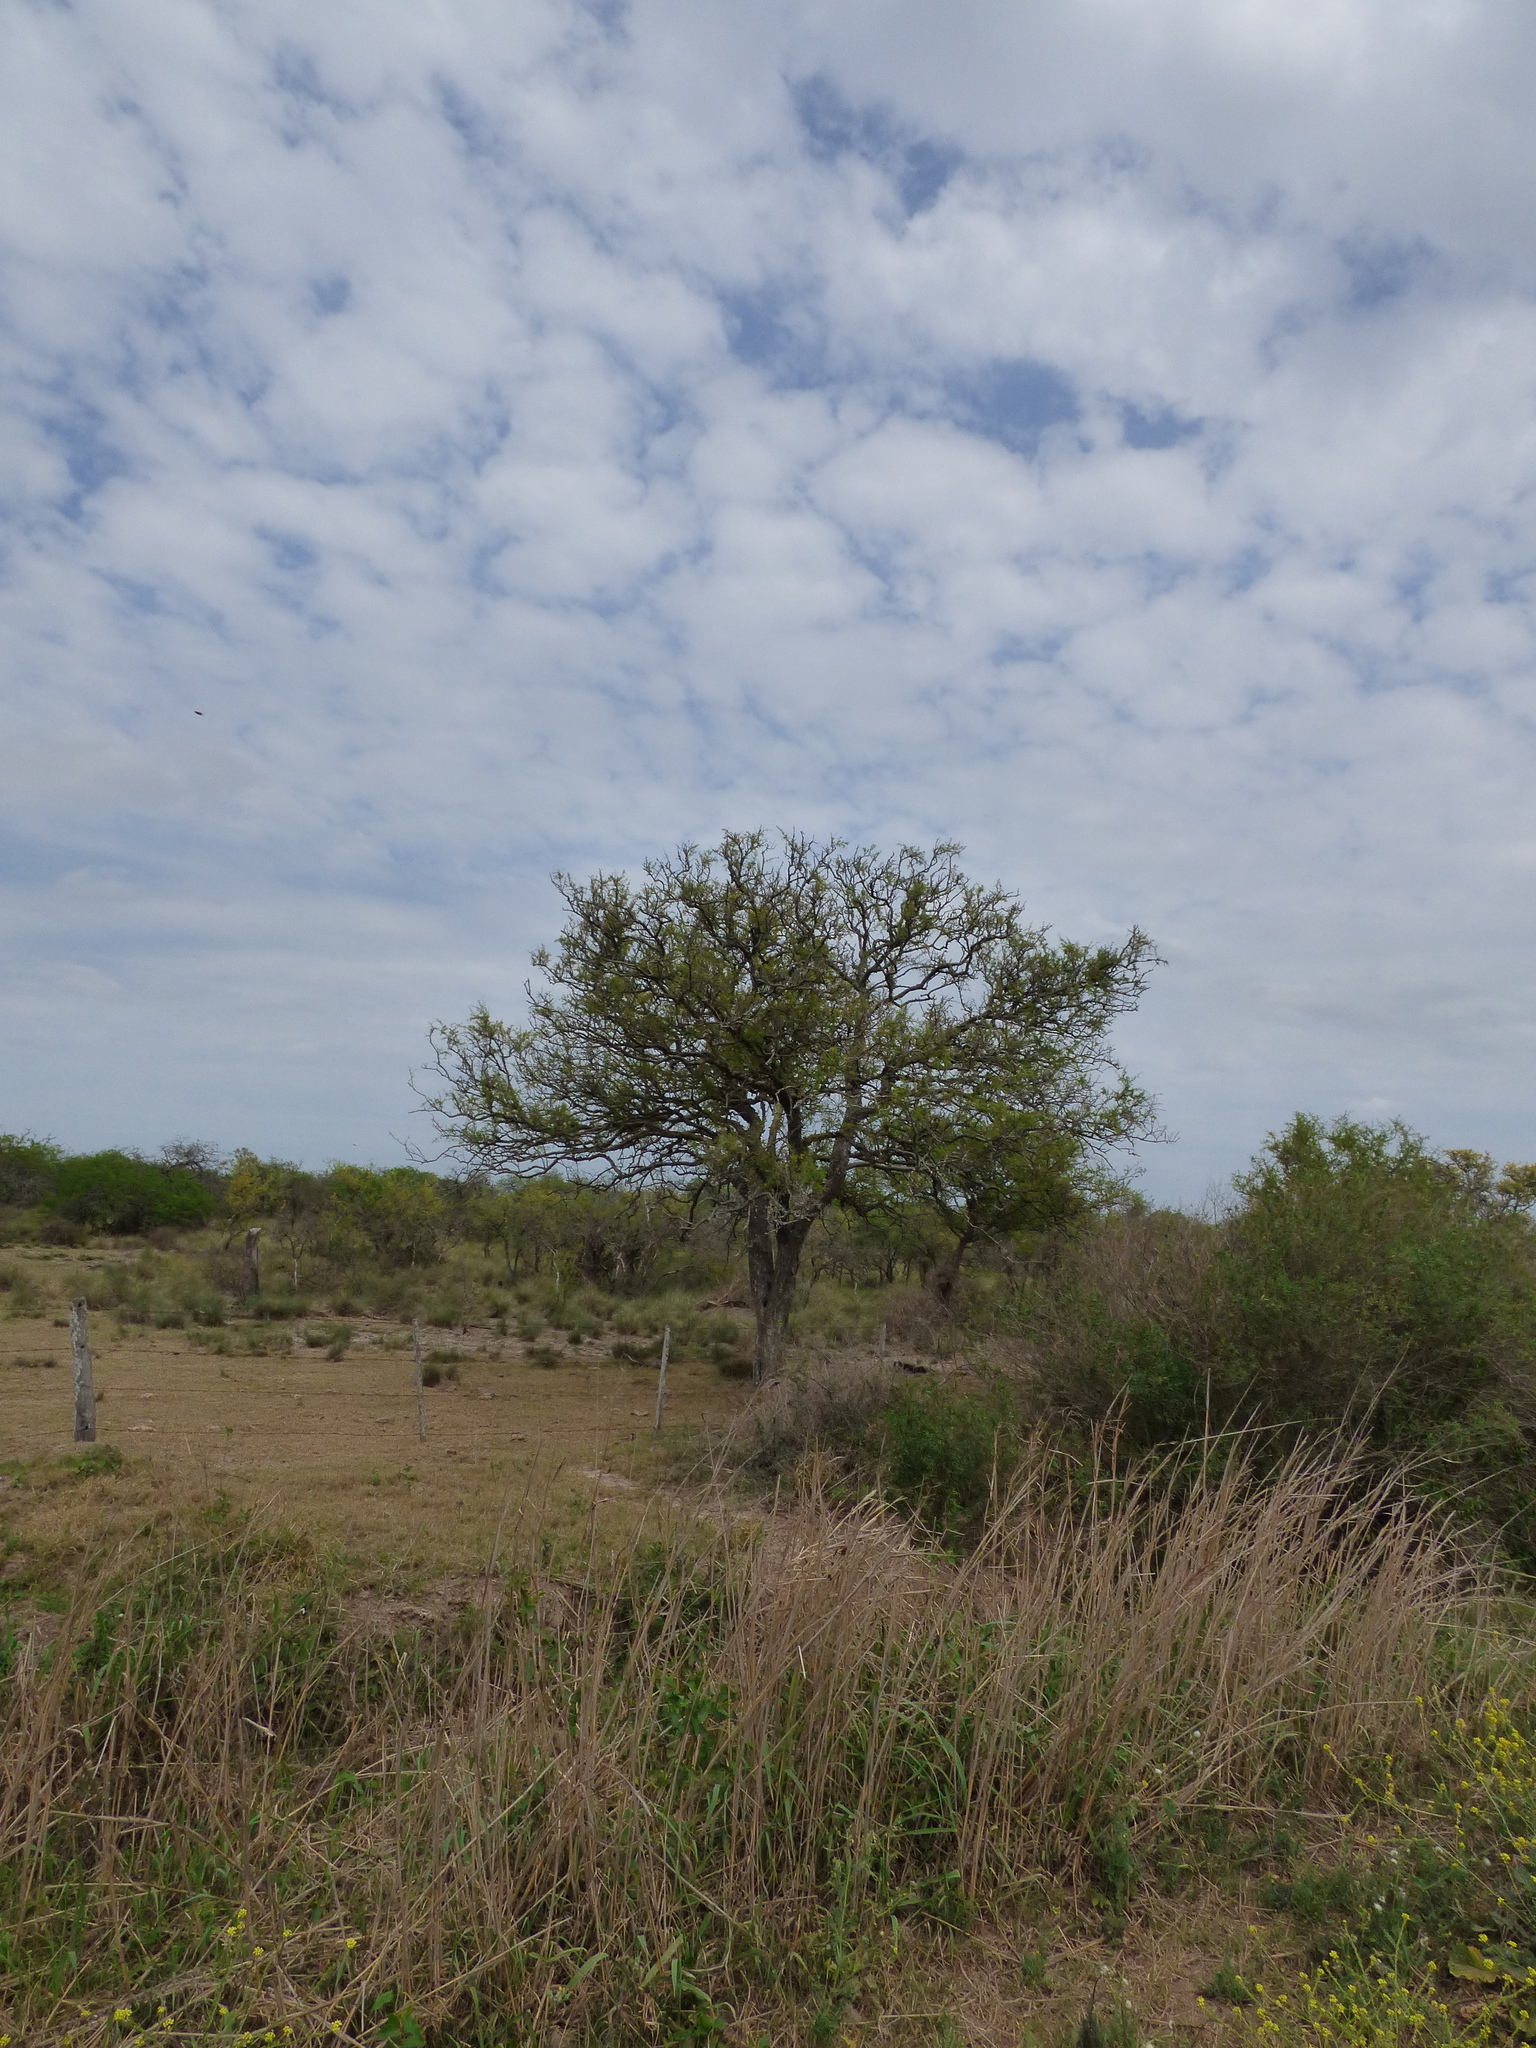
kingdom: Plantae
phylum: Tracheophyta
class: Magnoliopsida
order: Fabales
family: Fabaceae
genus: Geoffroea
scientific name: Geoffroea decorticans
